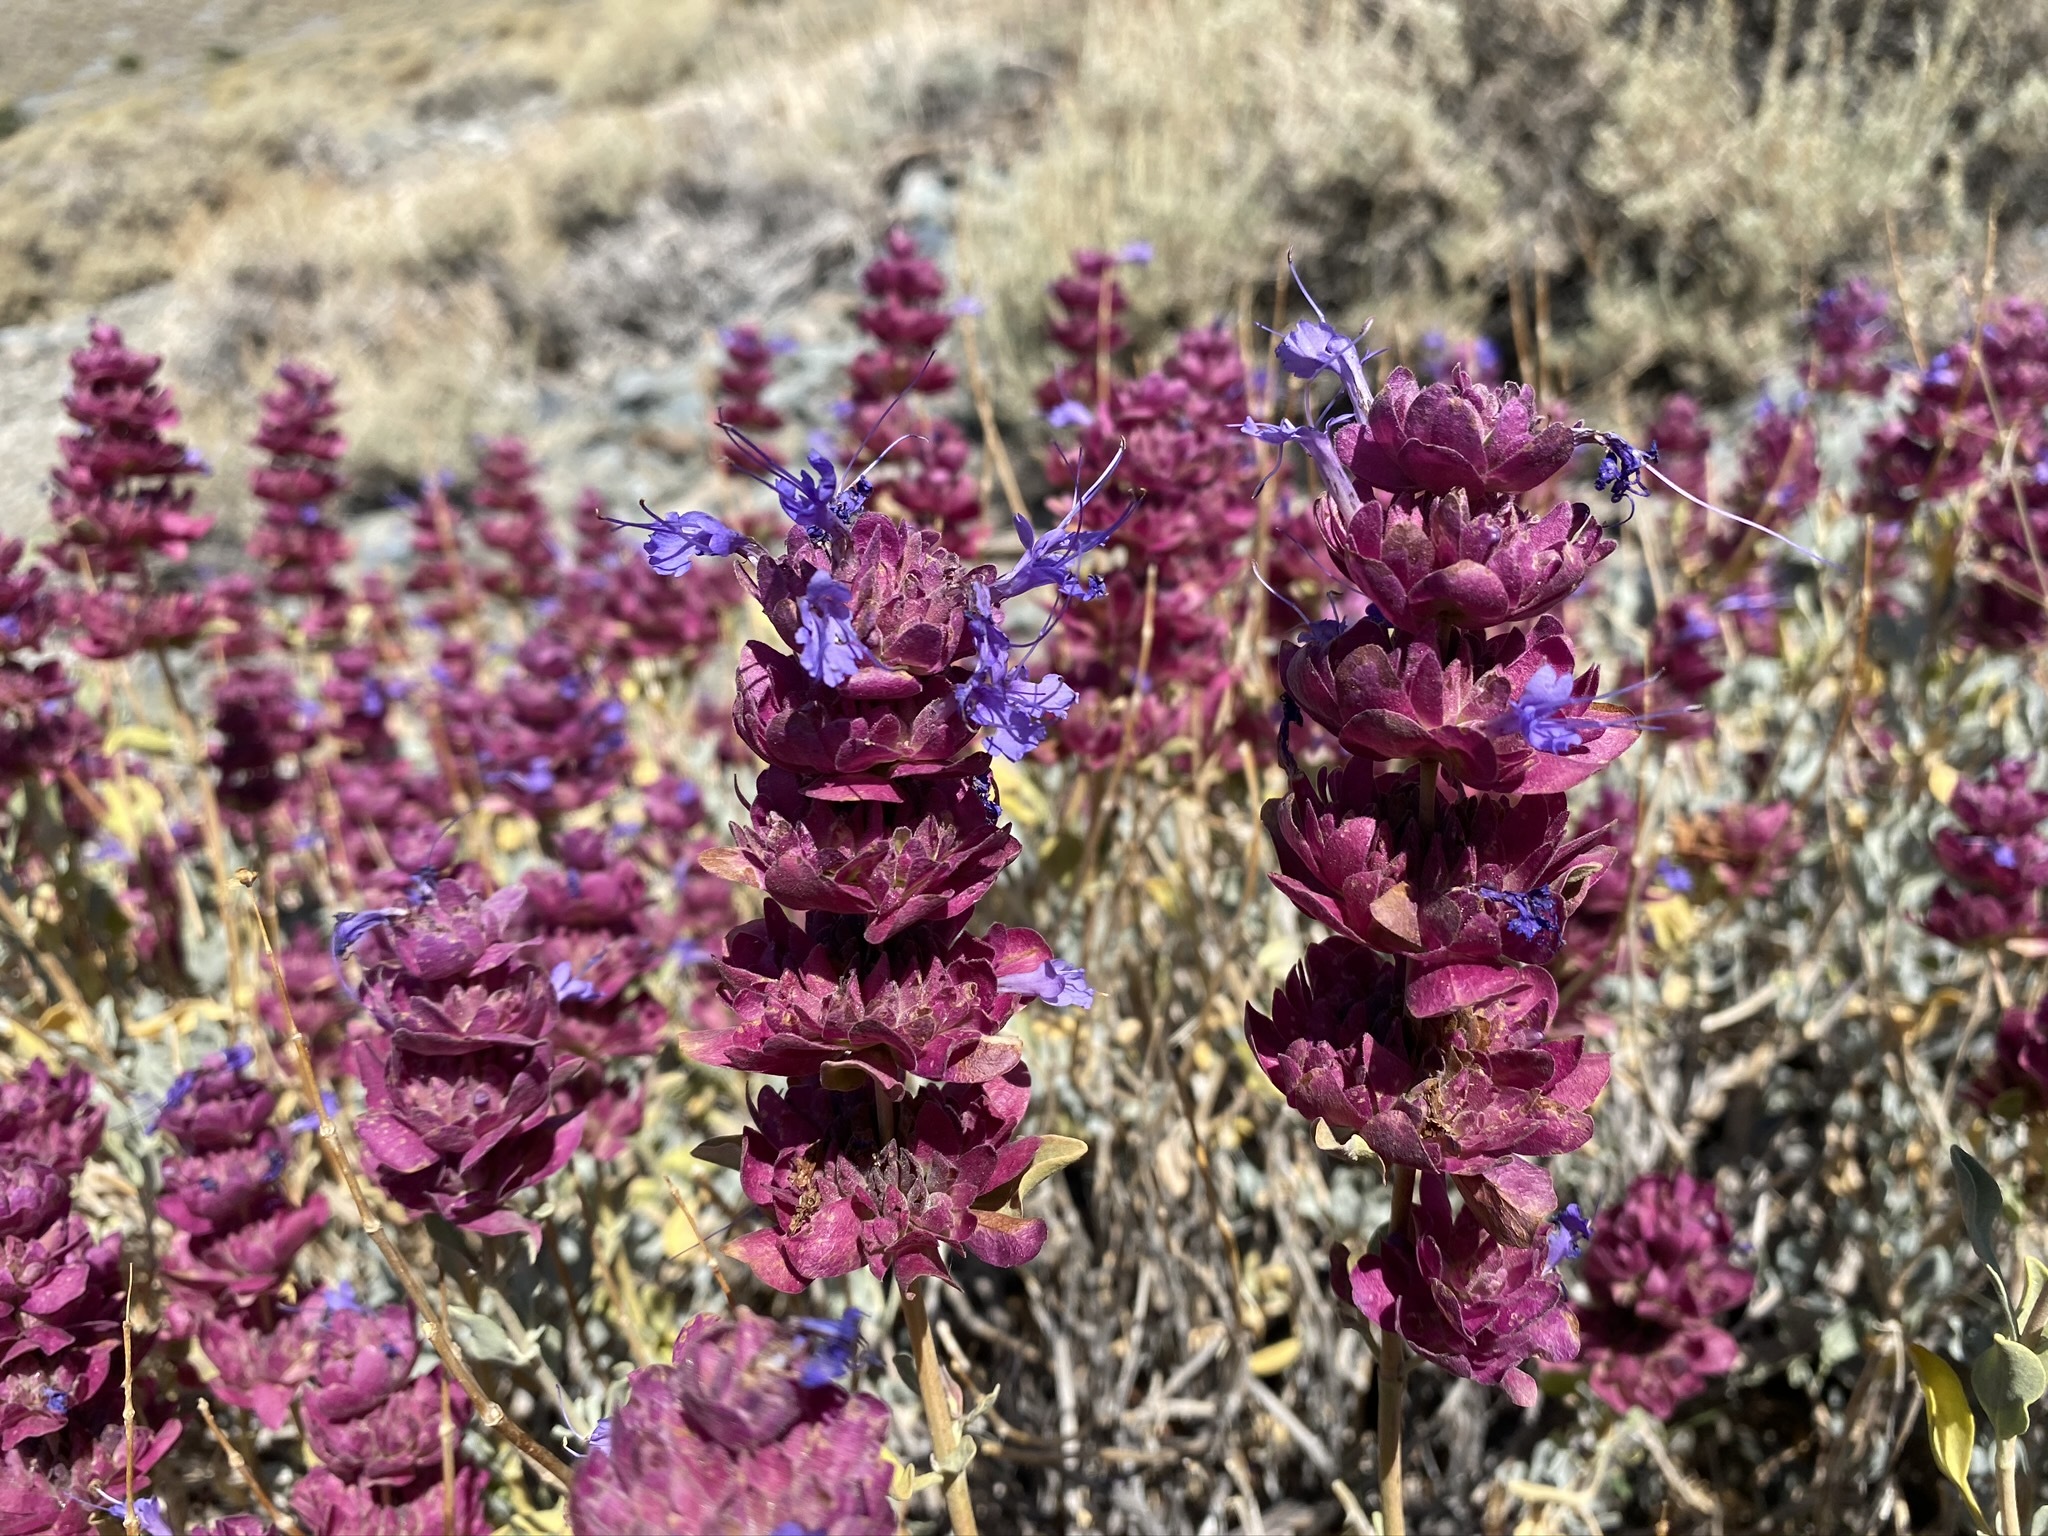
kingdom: Plantae
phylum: Tracheophyta
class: Magnoliopsida
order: Lamiales
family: Lamiaceae
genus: Salvia
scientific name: Salvia pachyphylla
